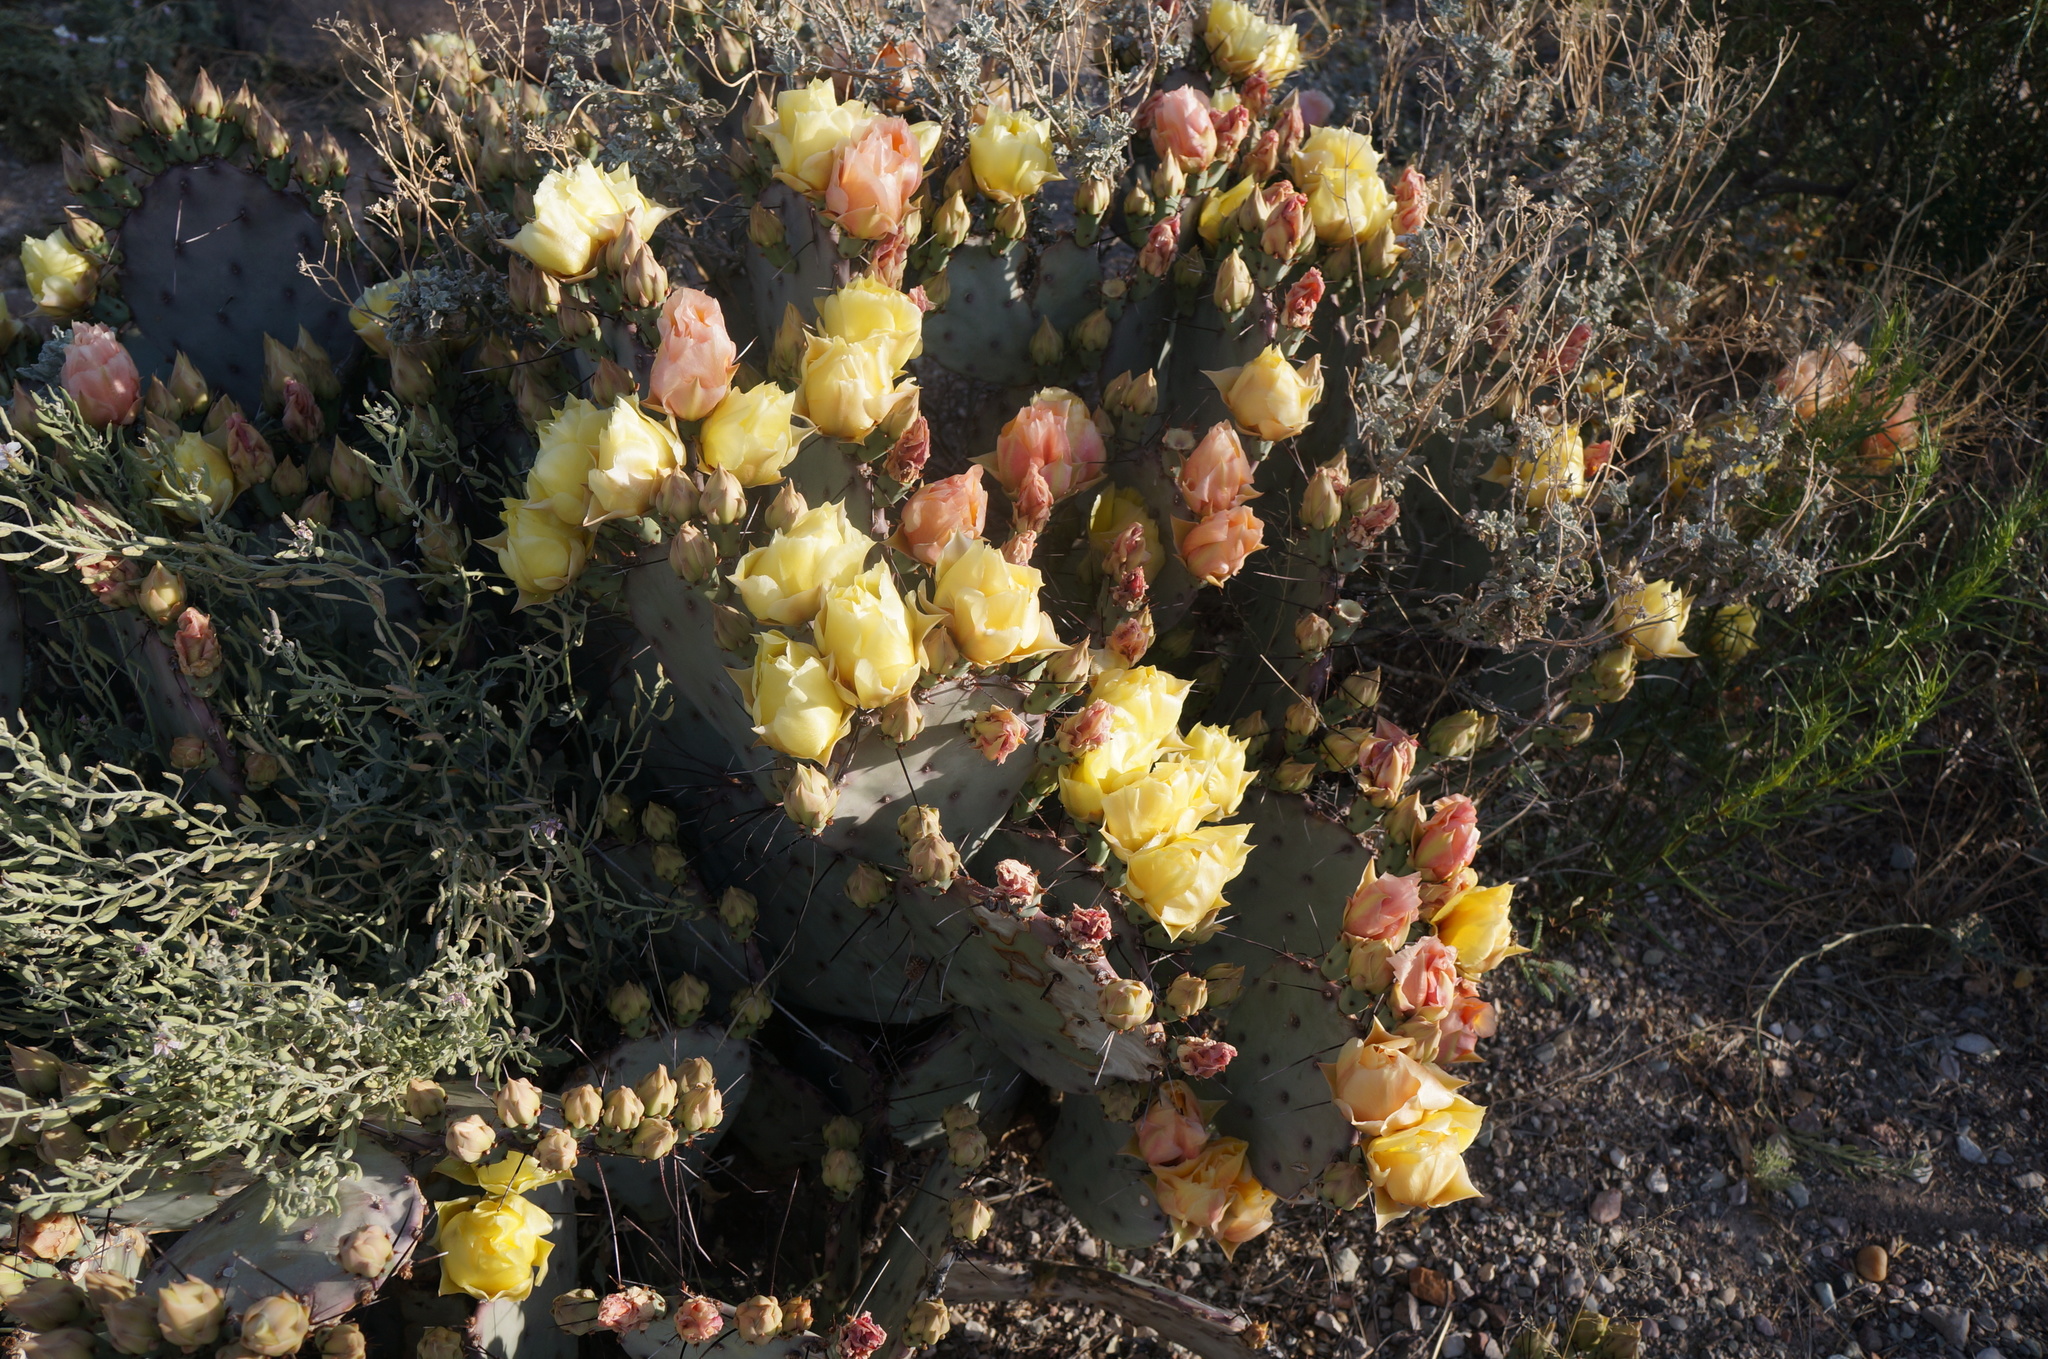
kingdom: Plantae
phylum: Tracheophyta
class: Magnoliopsida
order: Caryophyllales
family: Cactaceae
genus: Opuntia
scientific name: Opuntia phaeacantha
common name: New mexico prickly-pear
